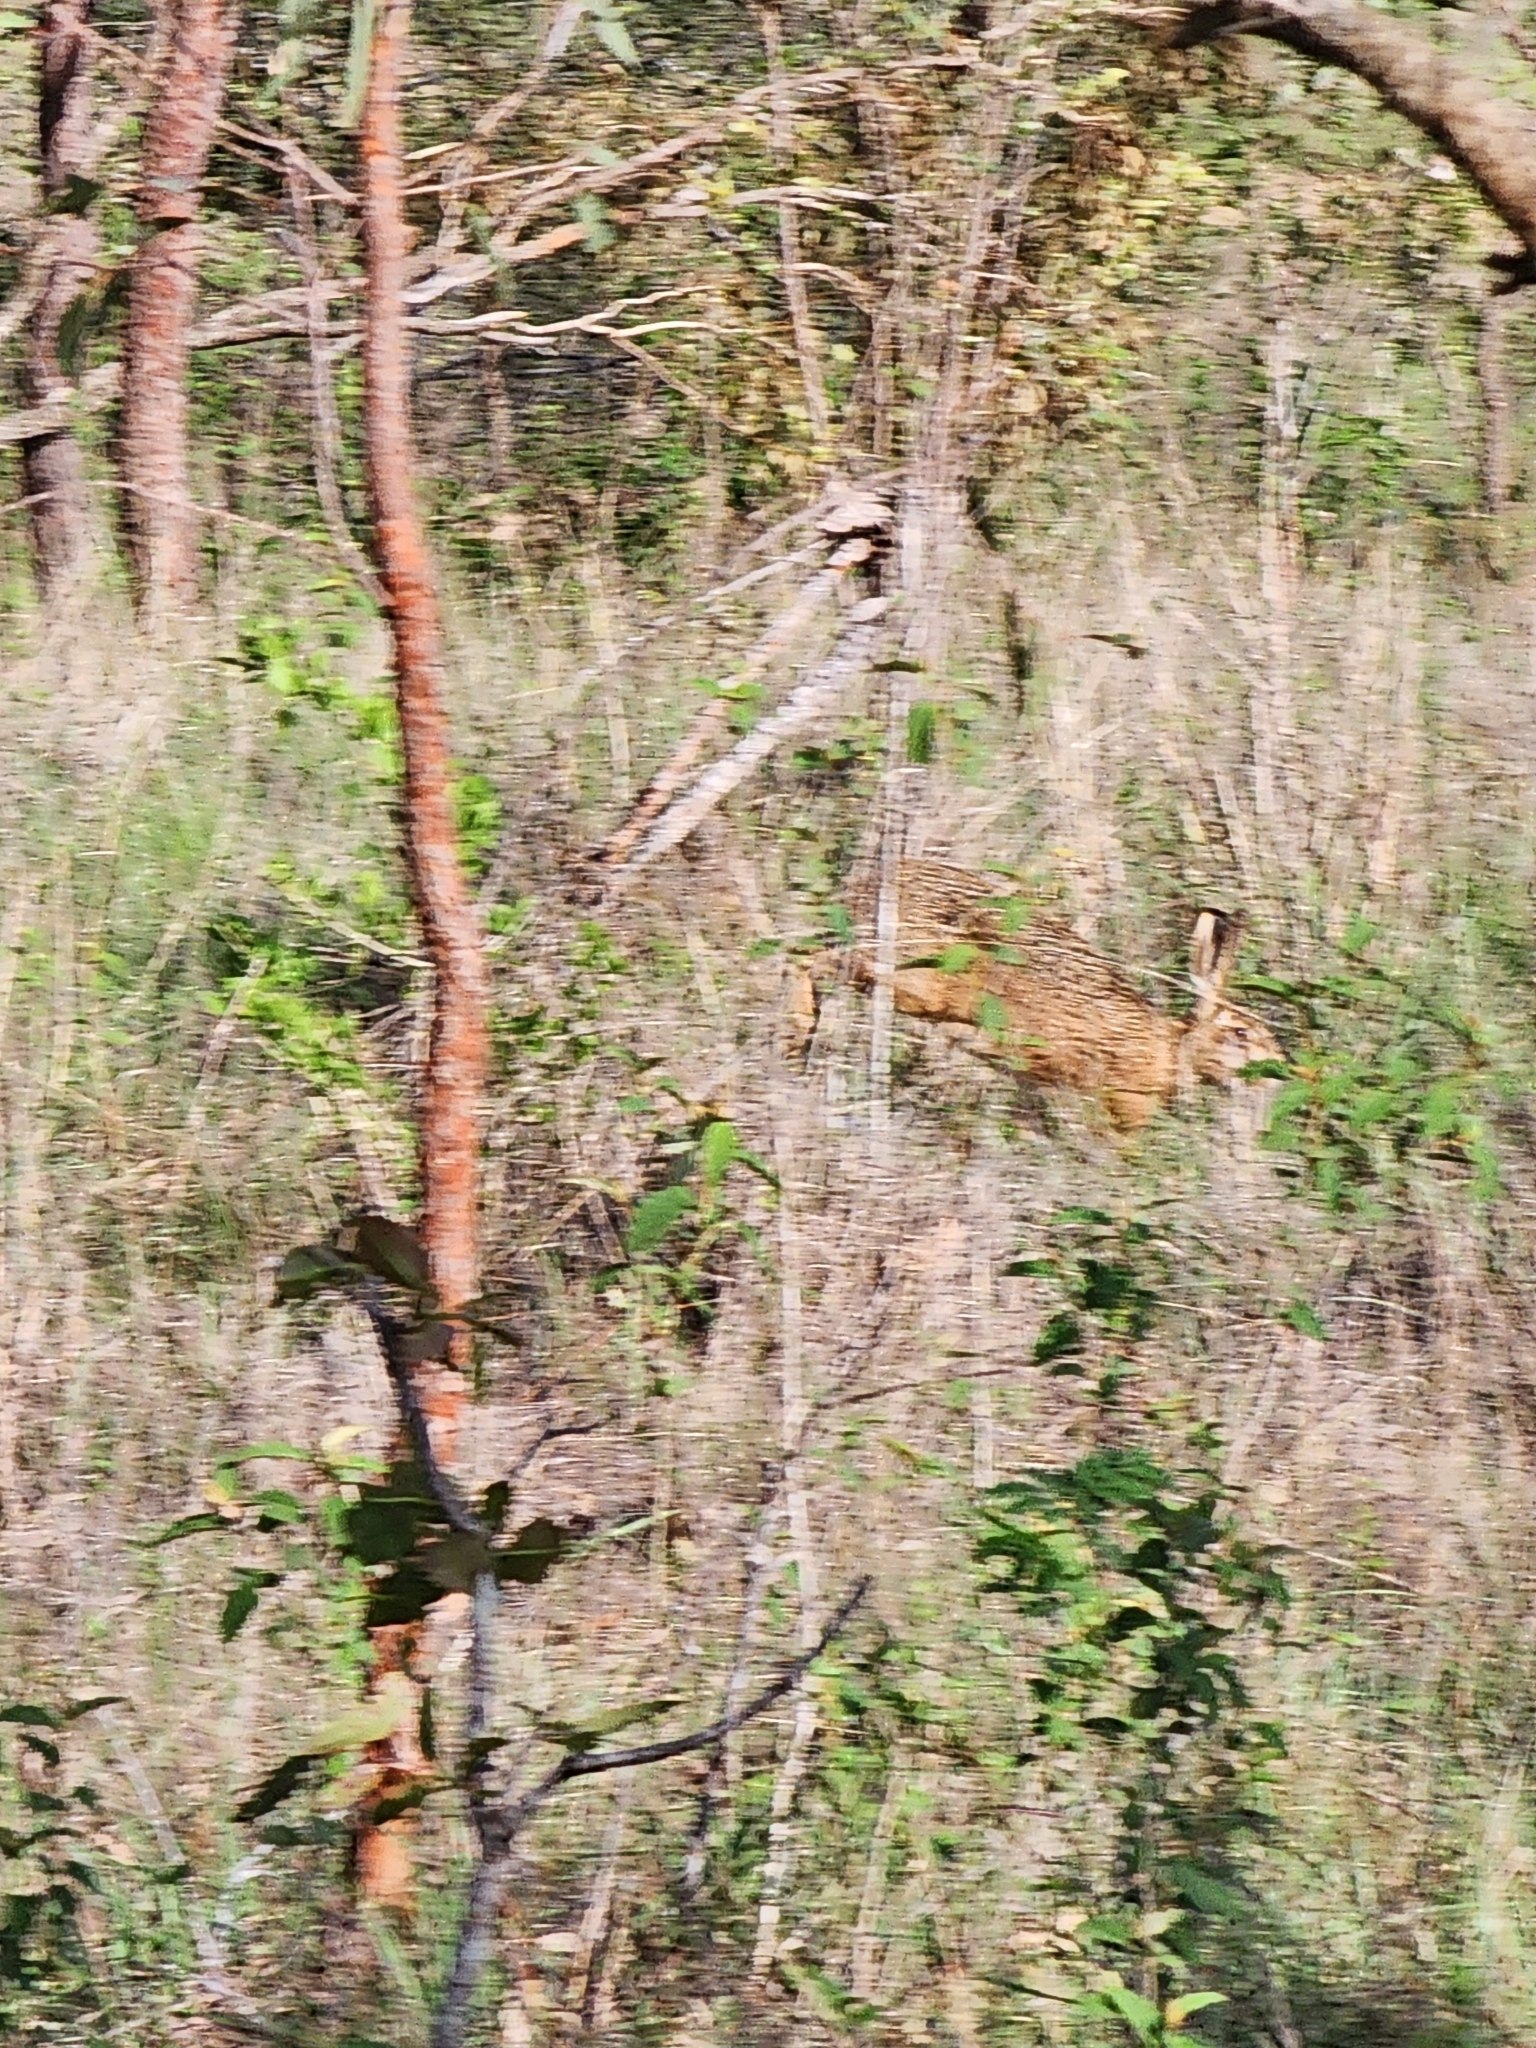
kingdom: Animalia
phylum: Chordata
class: Mammalia
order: Lagomorpha
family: Leporidae
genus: Lepus
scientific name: Lepus europaeus
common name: European hare
